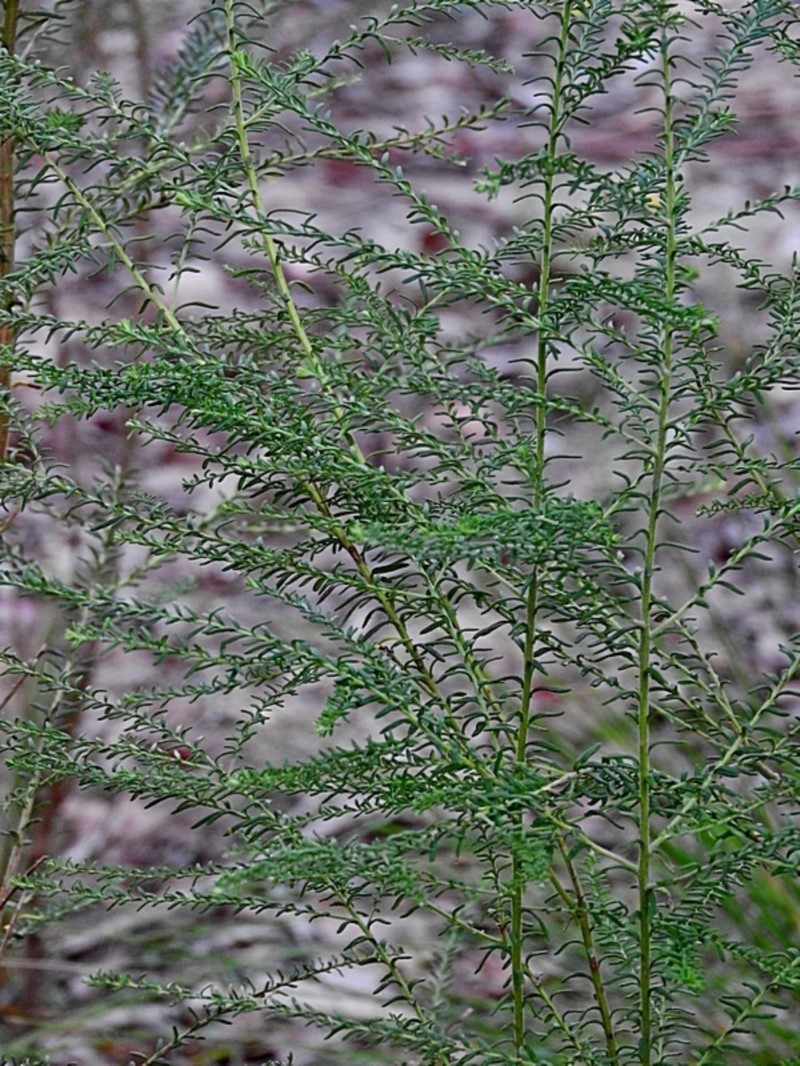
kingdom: Plantae
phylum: Tracheophyta
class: Magnoliopsida
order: Asterales
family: Asteraceae
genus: Ozothamnus
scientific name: Ozothamnus diosmifolius
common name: White-dogwood
